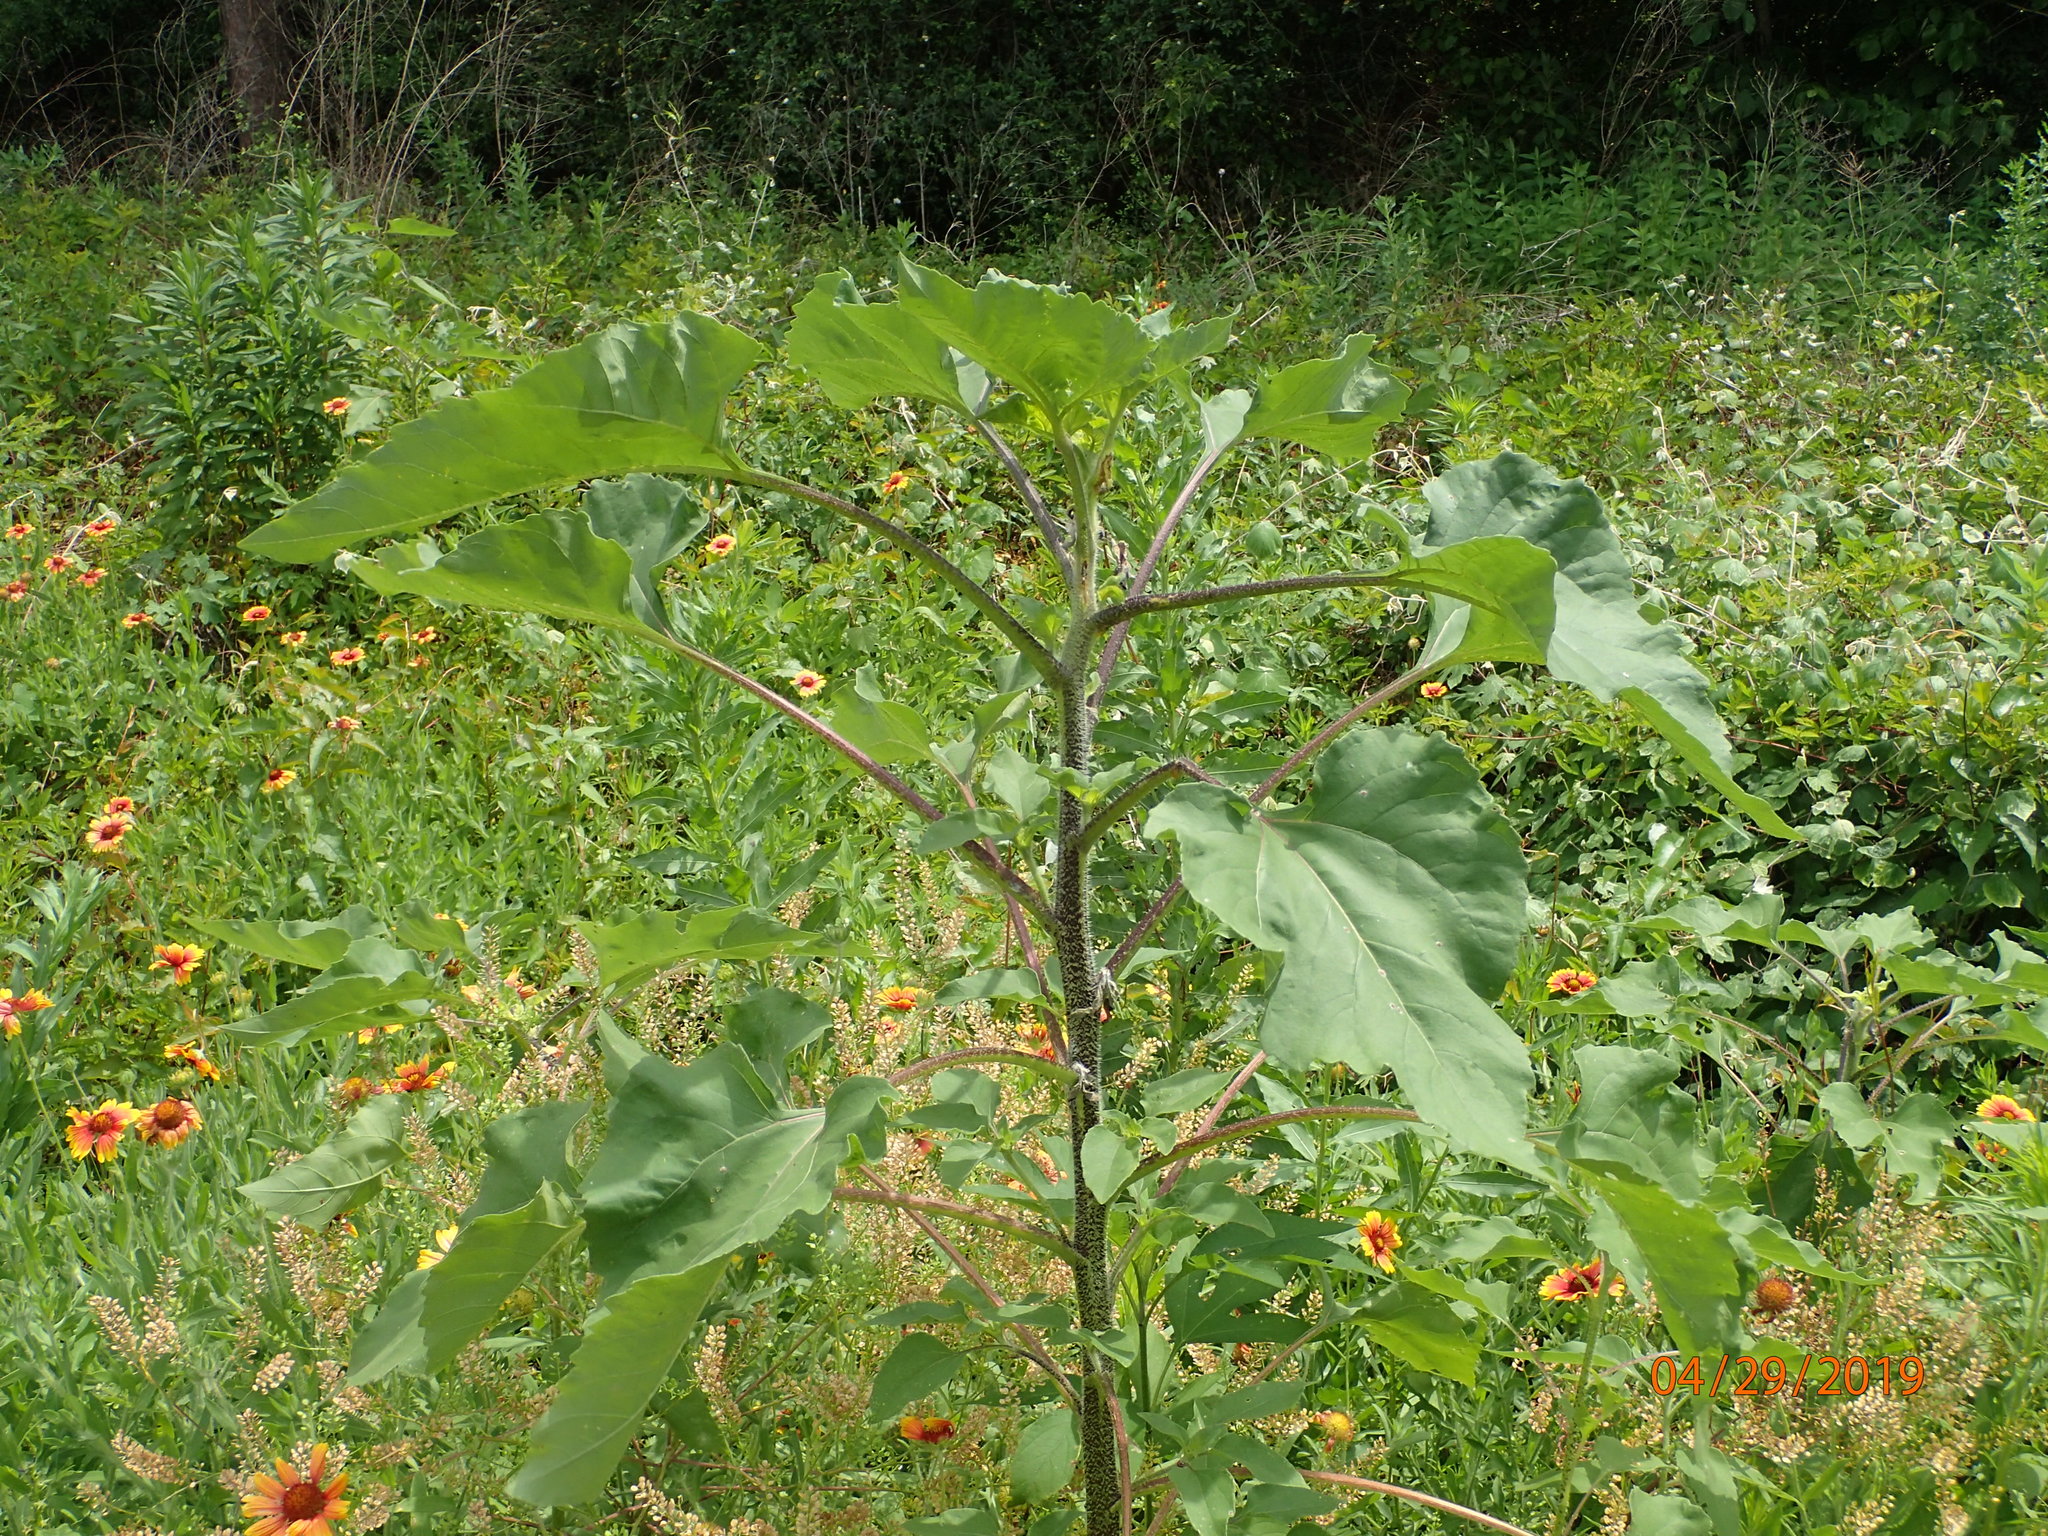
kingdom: Plantae
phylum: Tracheophyta
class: Magnoliopsida
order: Asterales
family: Asteraceae
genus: Helianthus
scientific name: Helianthus annuus
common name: Sunflower
